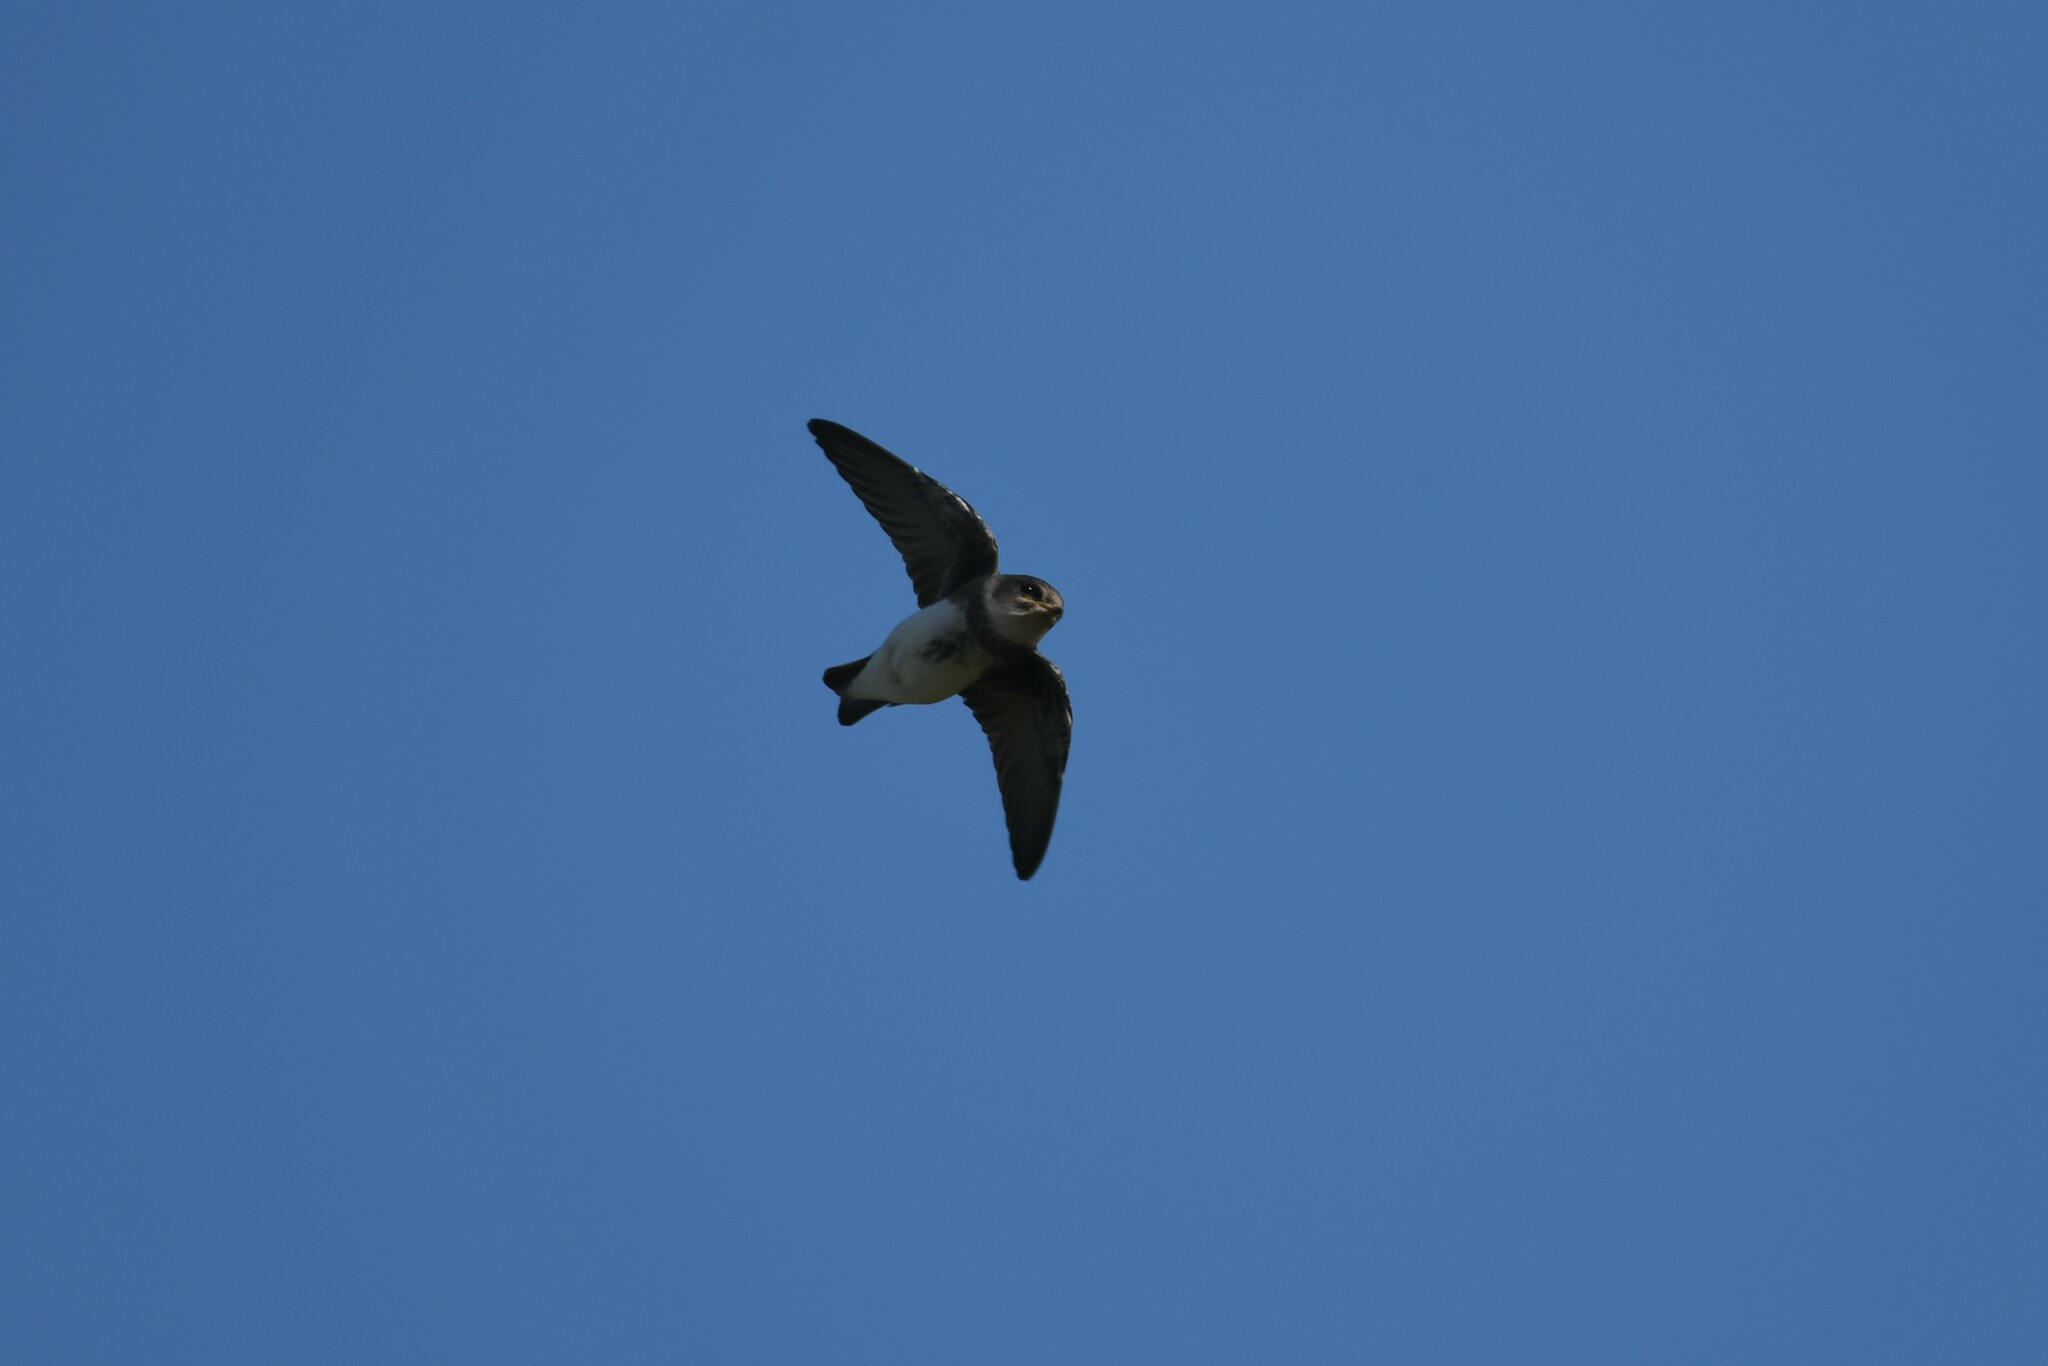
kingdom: Animalia
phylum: Chordata
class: Aves
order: Passeriformes
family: Hirundinidae
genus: Riparia
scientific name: Riparia riparia
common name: Sand martin
